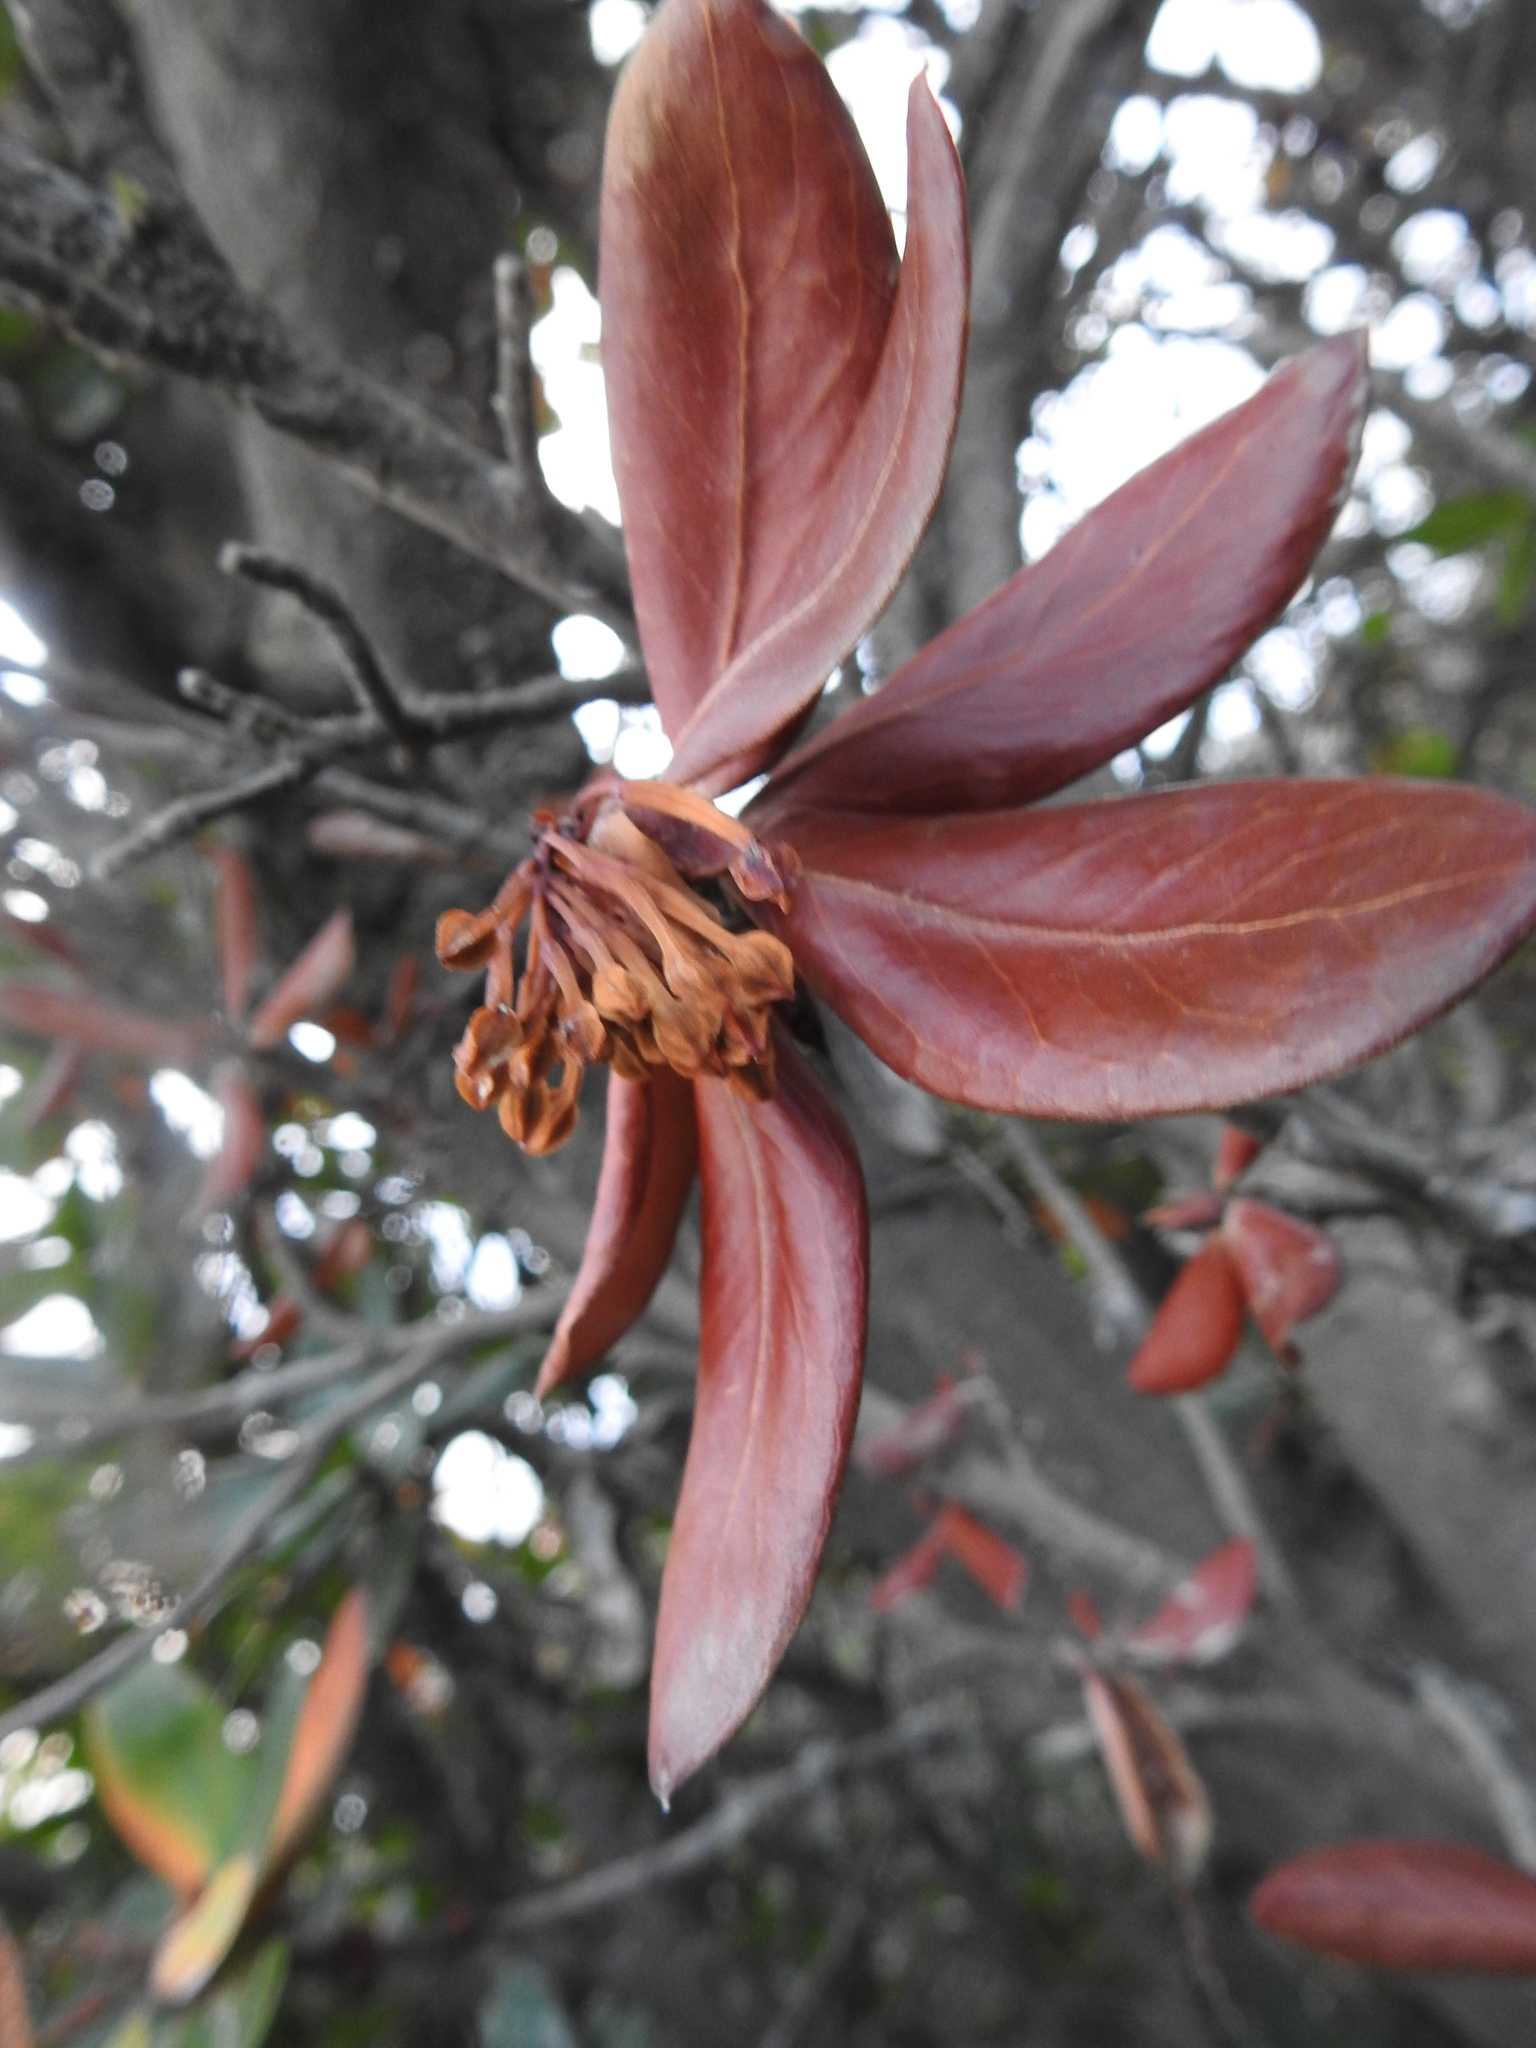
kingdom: Plantae
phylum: Tracheophyta
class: Magnoliopsida
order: Proteales
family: Proteaceae
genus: Embothrium
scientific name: Embothrium coccineum
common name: Chilean firebush
